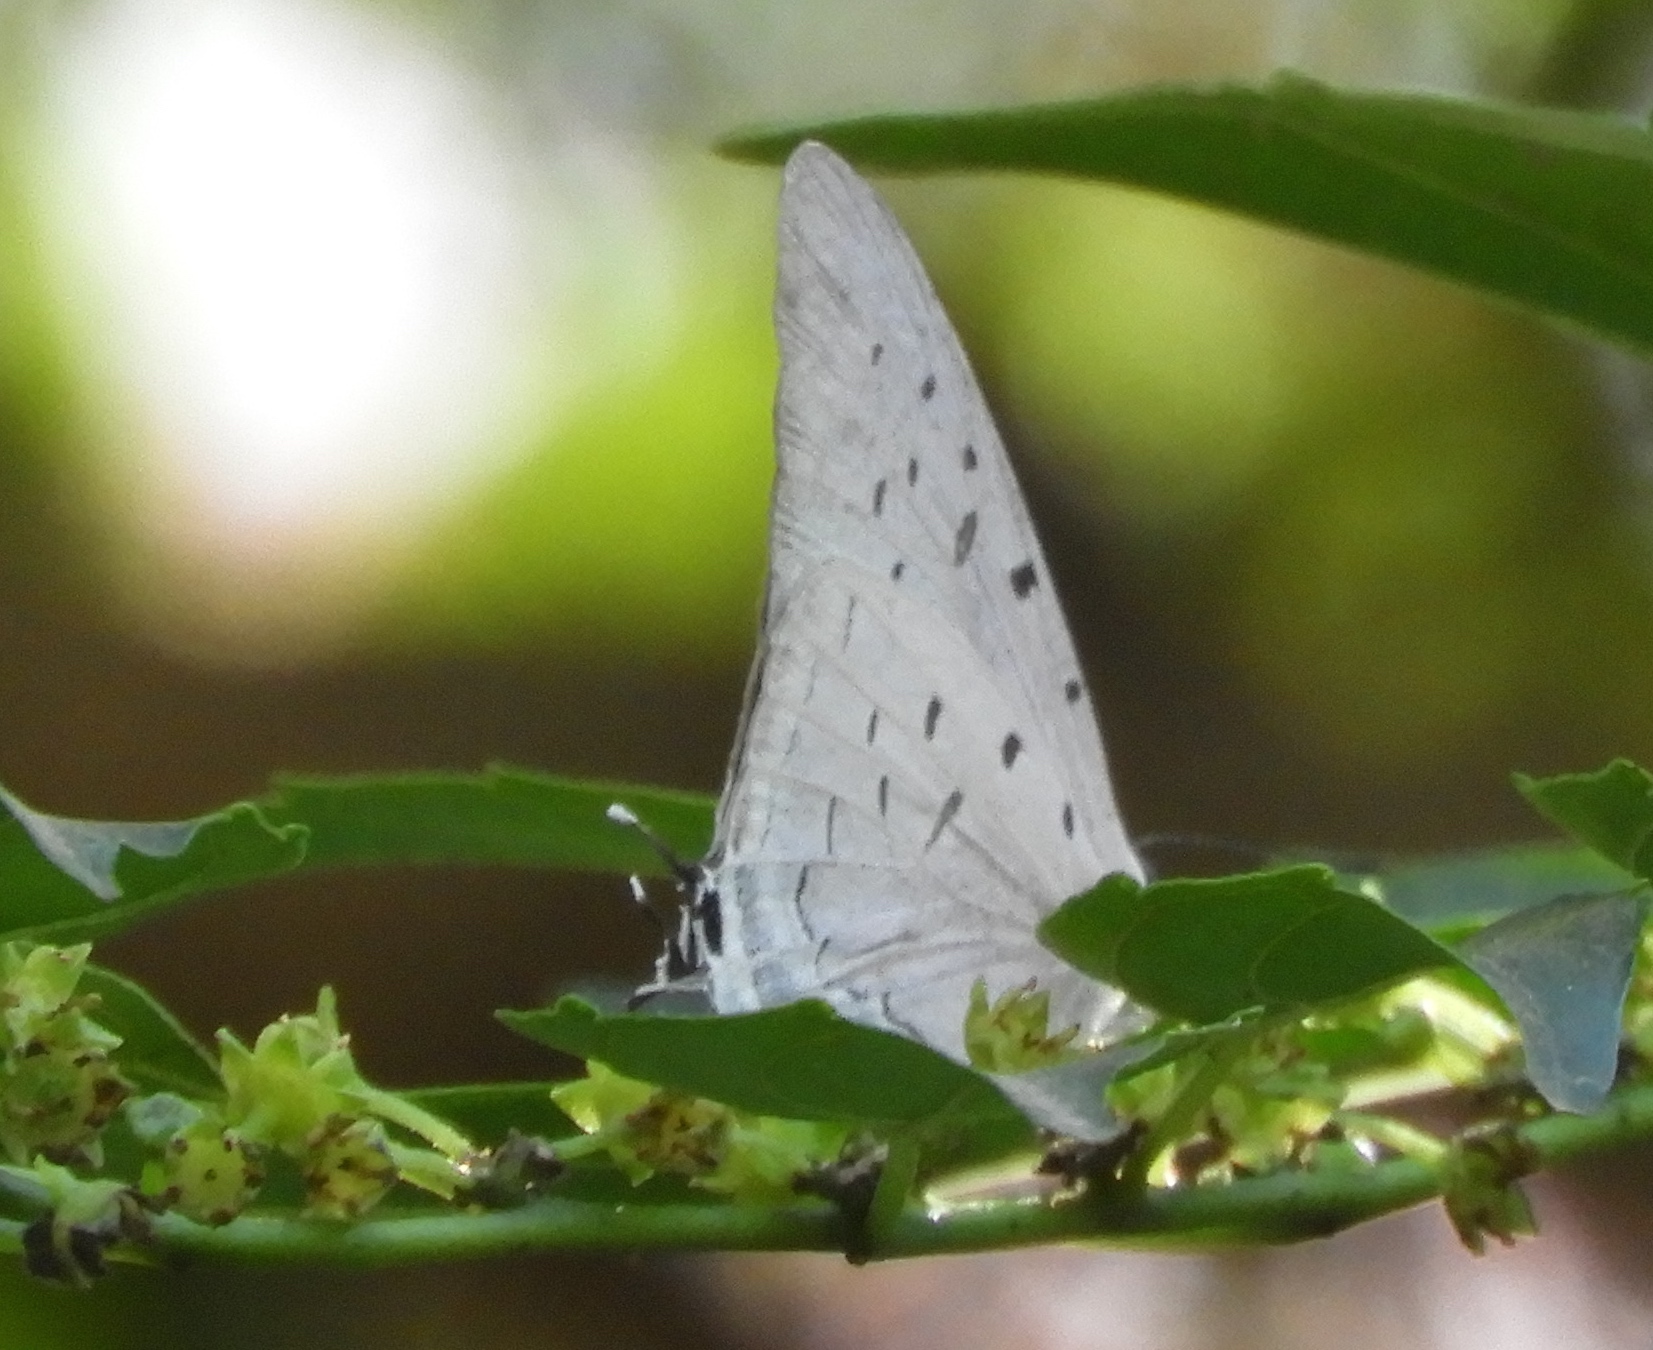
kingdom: Animalia
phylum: Arthropoda
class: Insecta
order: Lepidoptera
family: Lycaenidae
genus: Pseudolycaena
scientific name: Pseudolycaena damo
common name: Sky-blue hairstreak
